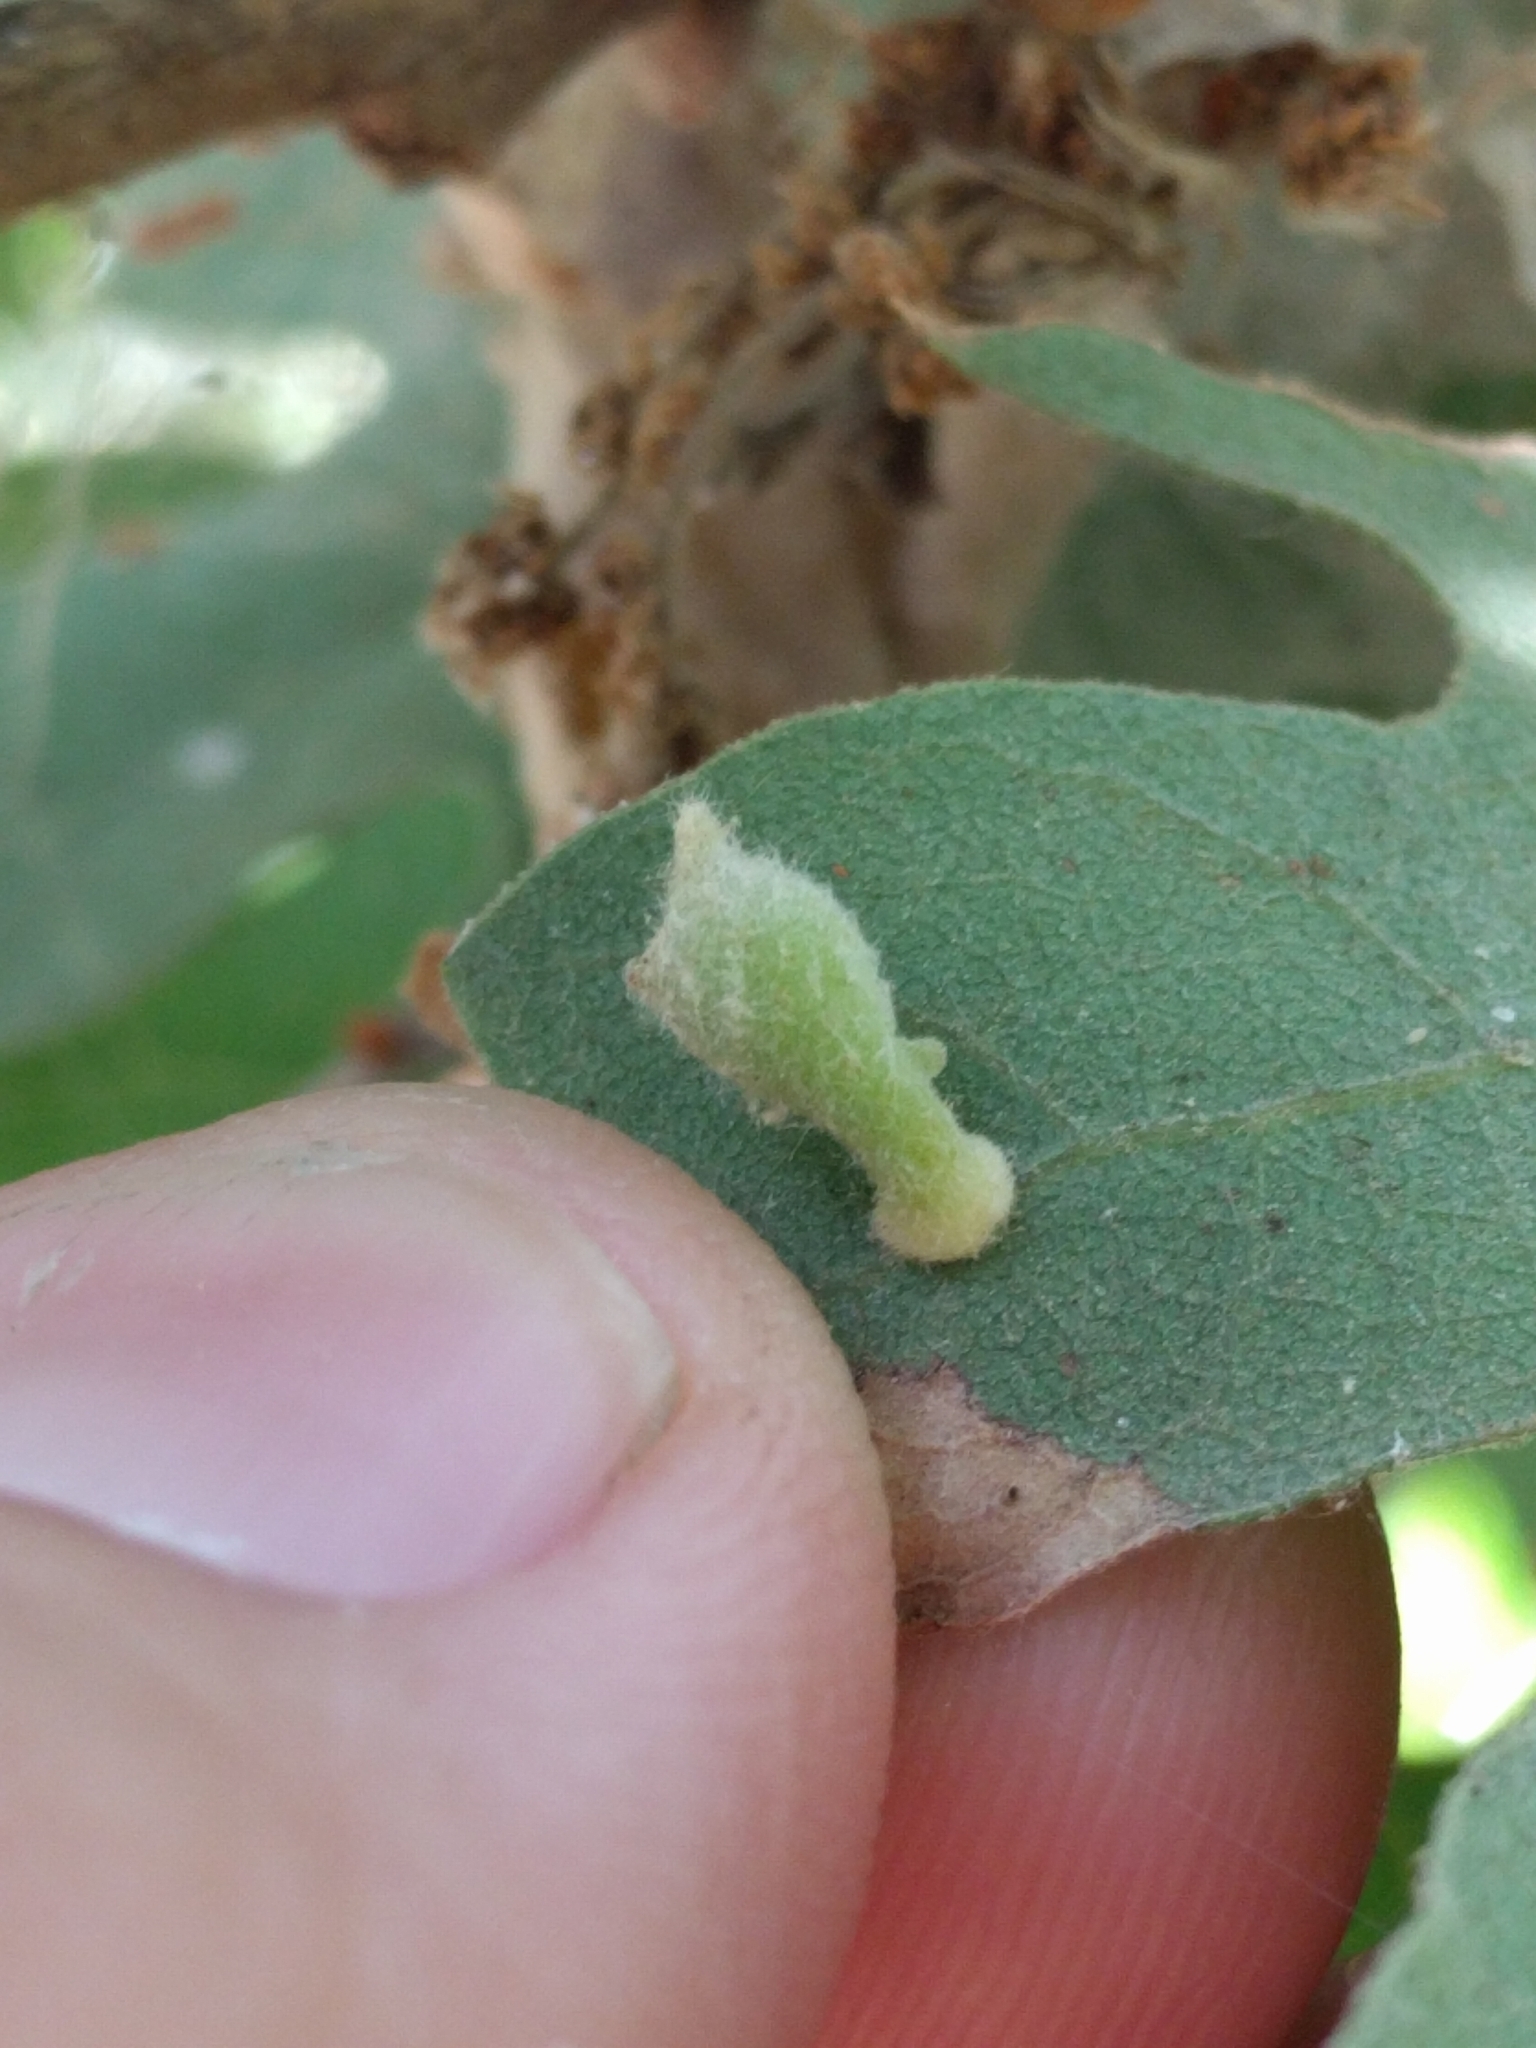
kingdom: Animalia
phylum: Arthropoda
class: Insecta
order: Hymenoptera
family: Cynipidae
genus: Atrusca
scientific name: Atrusca
